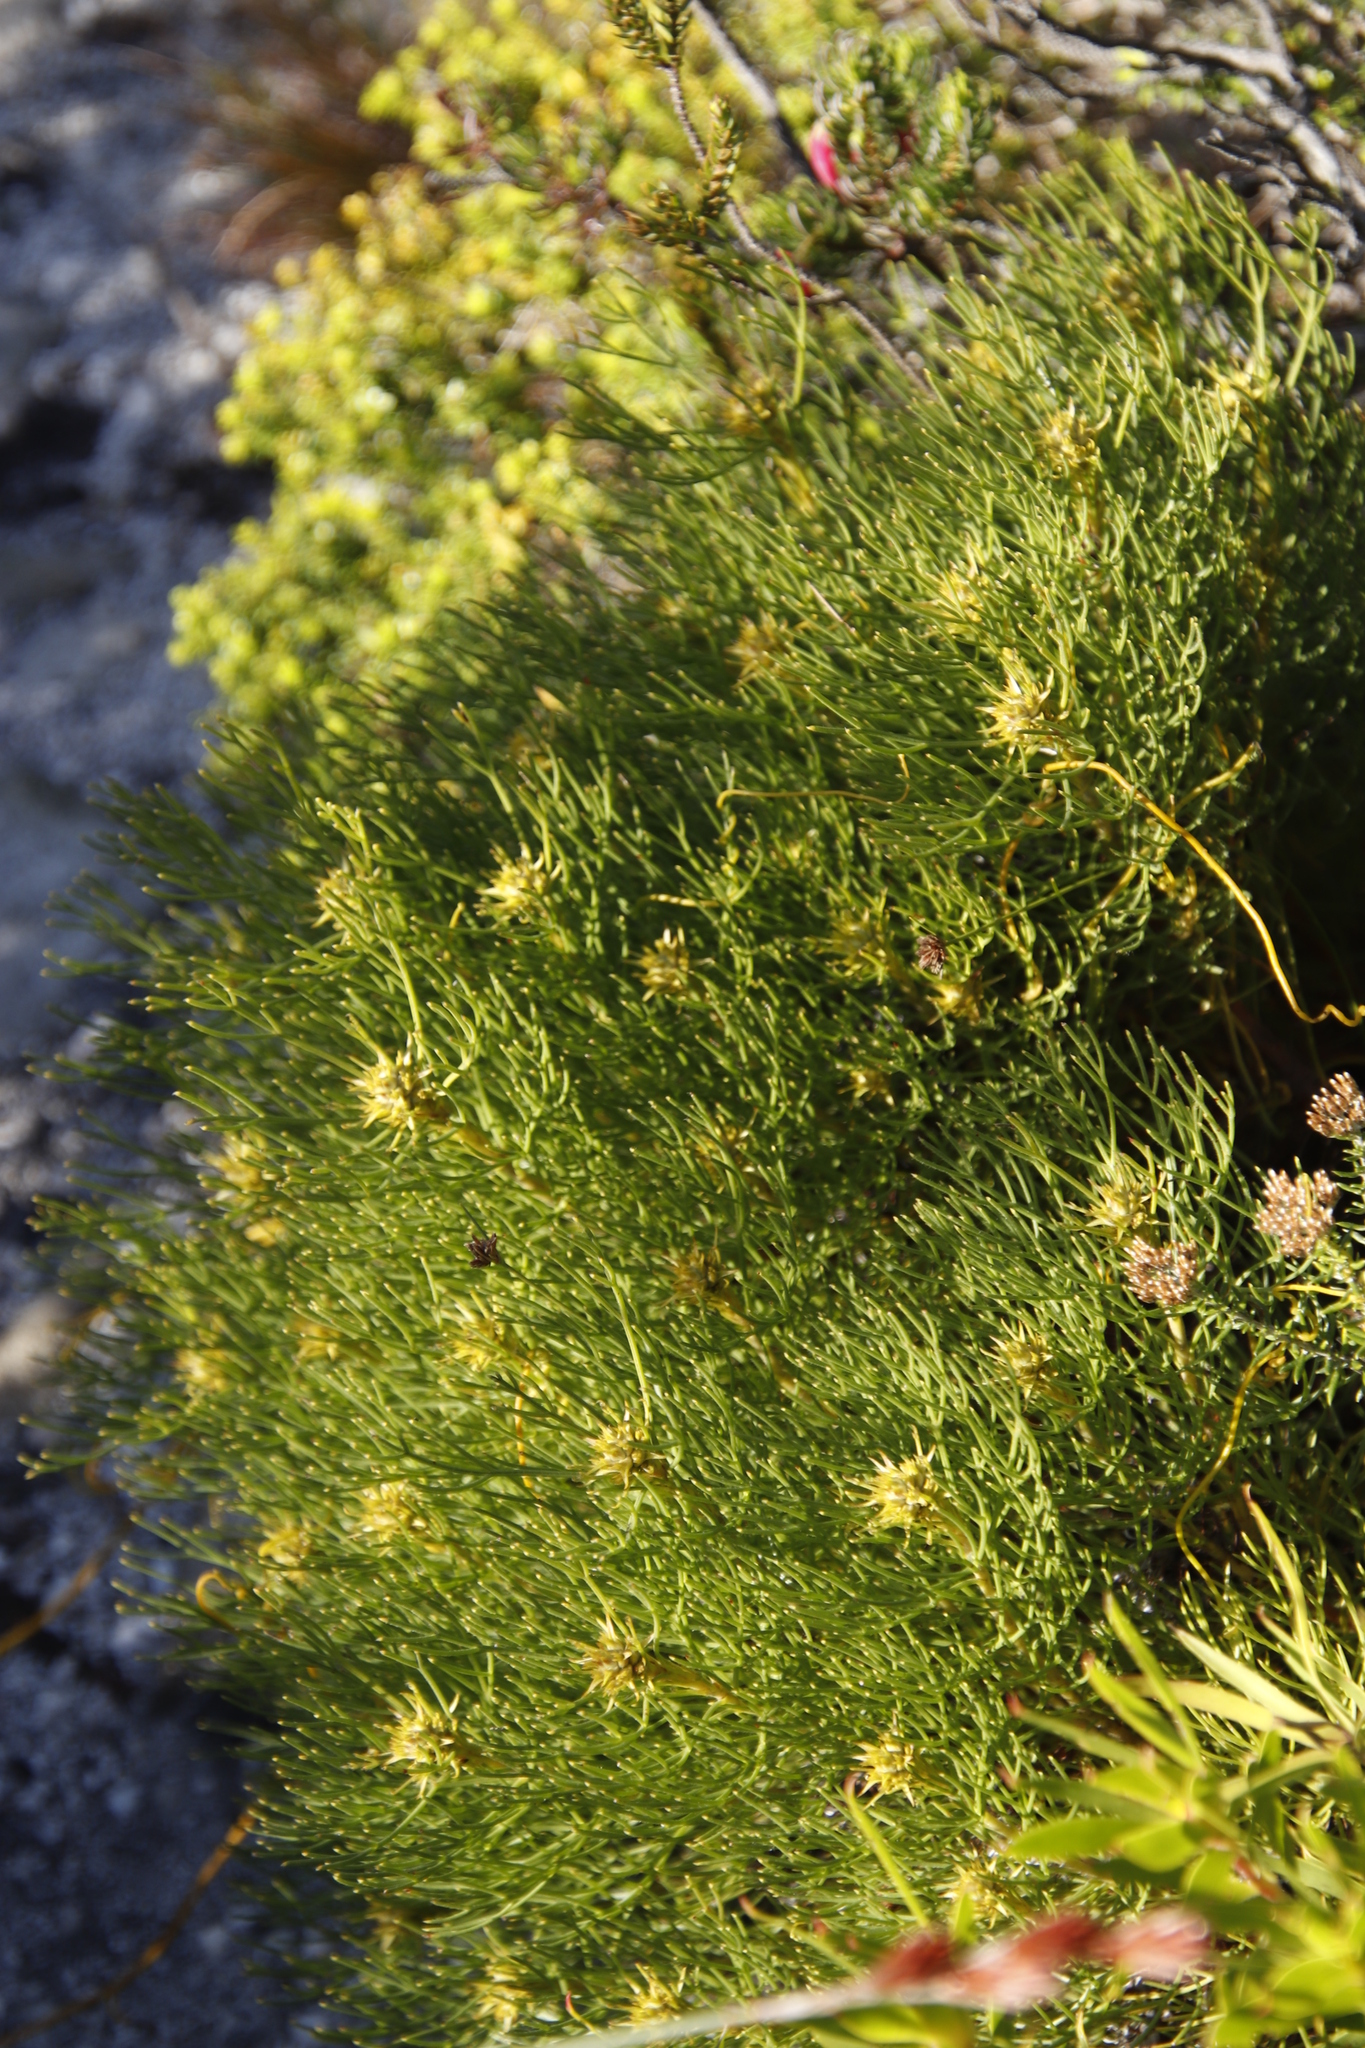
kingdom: Plantae
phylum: Tracheophyta
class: Magnoliopsida
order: Proteales
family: Proteaceae
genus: Serruria
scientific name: Serruria ascendens
